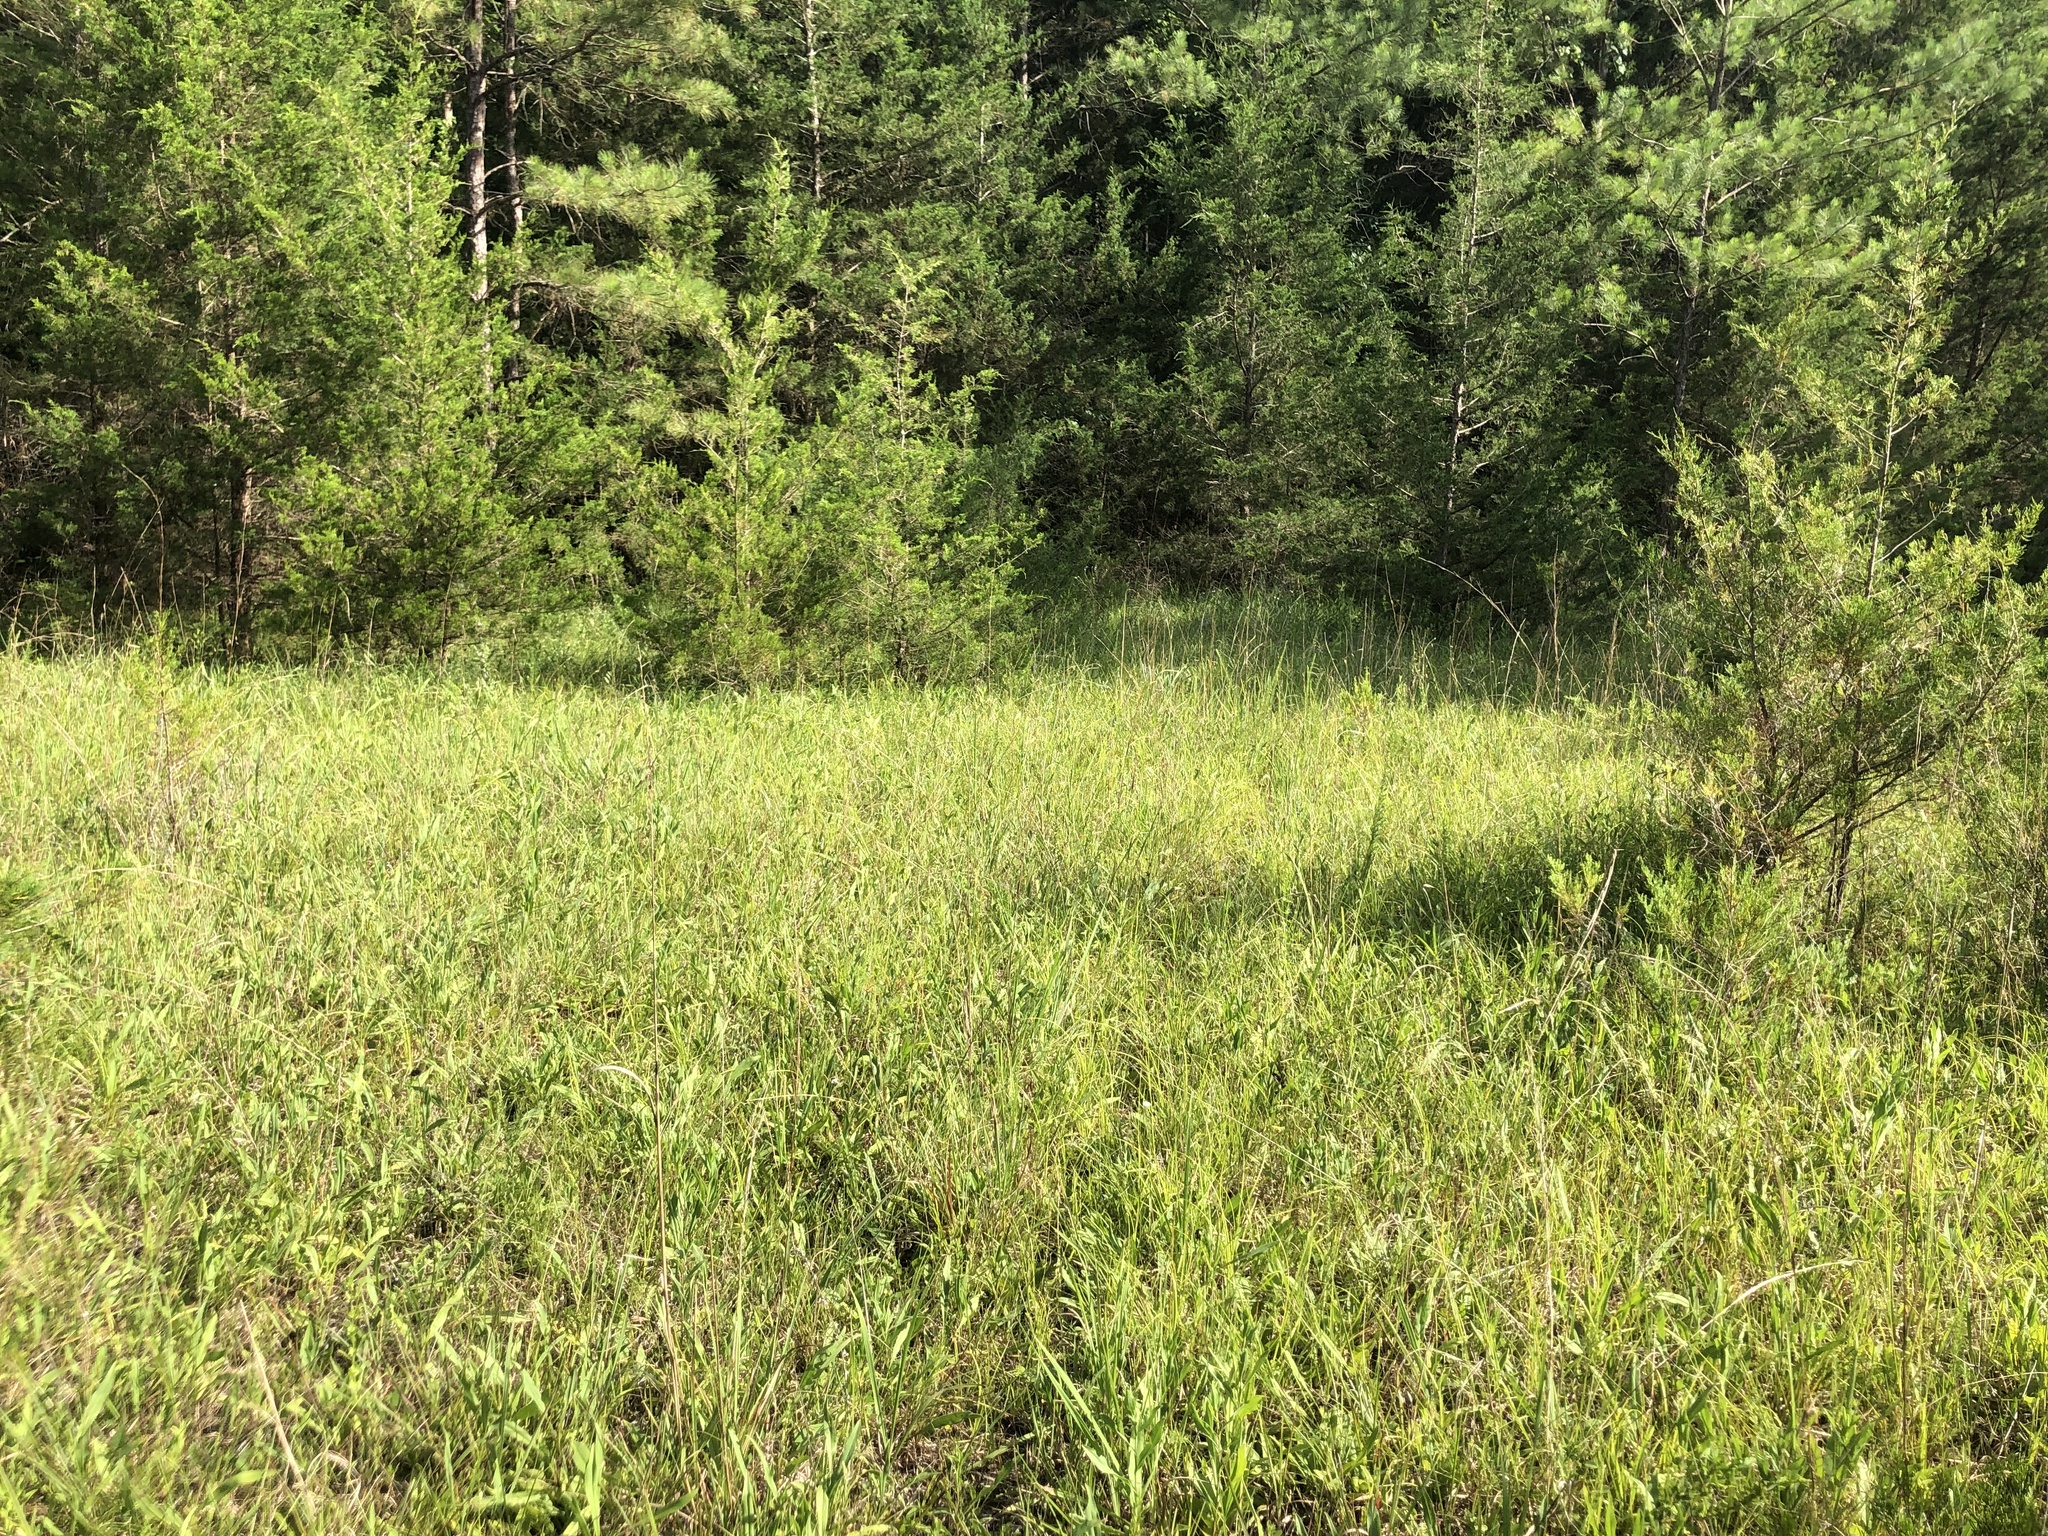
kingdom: Plantae
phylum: Tracheophyta
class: Magnoliopsida
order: Asterales
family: Asteraceae
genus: Silphium
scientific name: Silphium confertifolium
